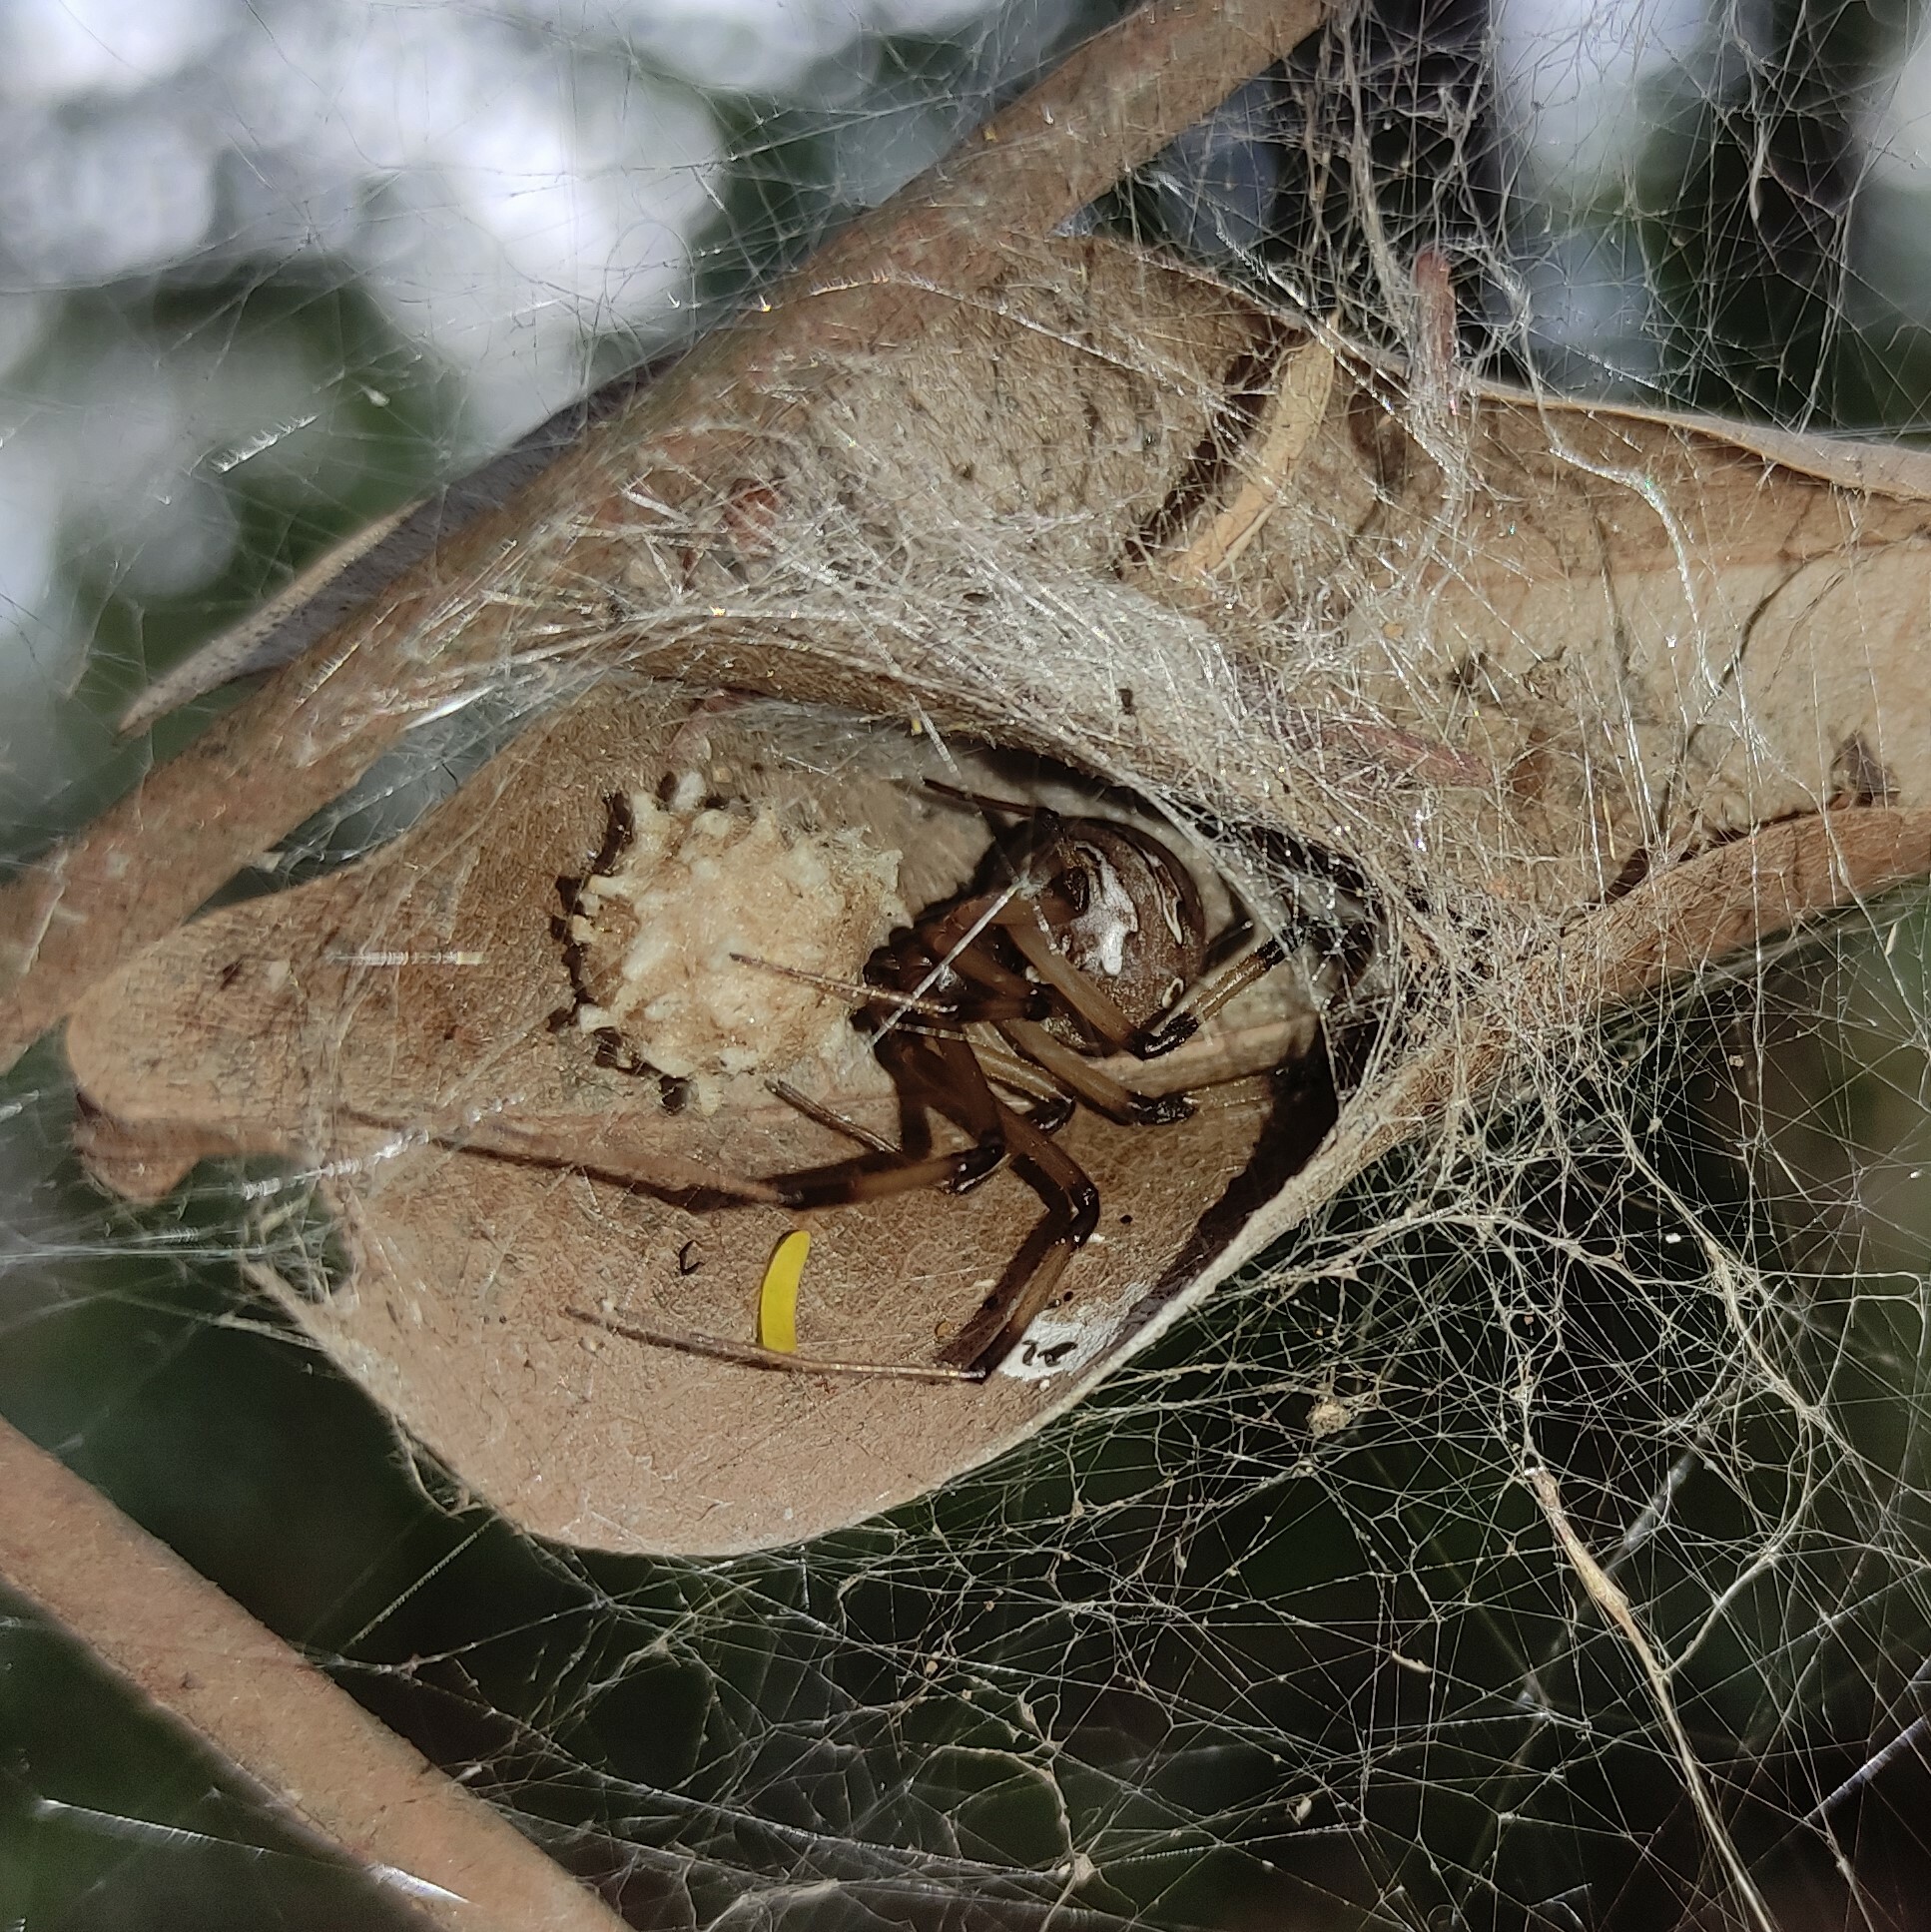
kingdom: Animalia
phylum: Arthropoda
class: Arachnida
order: Araneae
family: Theridiidae
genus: Latrodectus
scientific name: Latrodectus geometricus
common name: Brown widow spider
